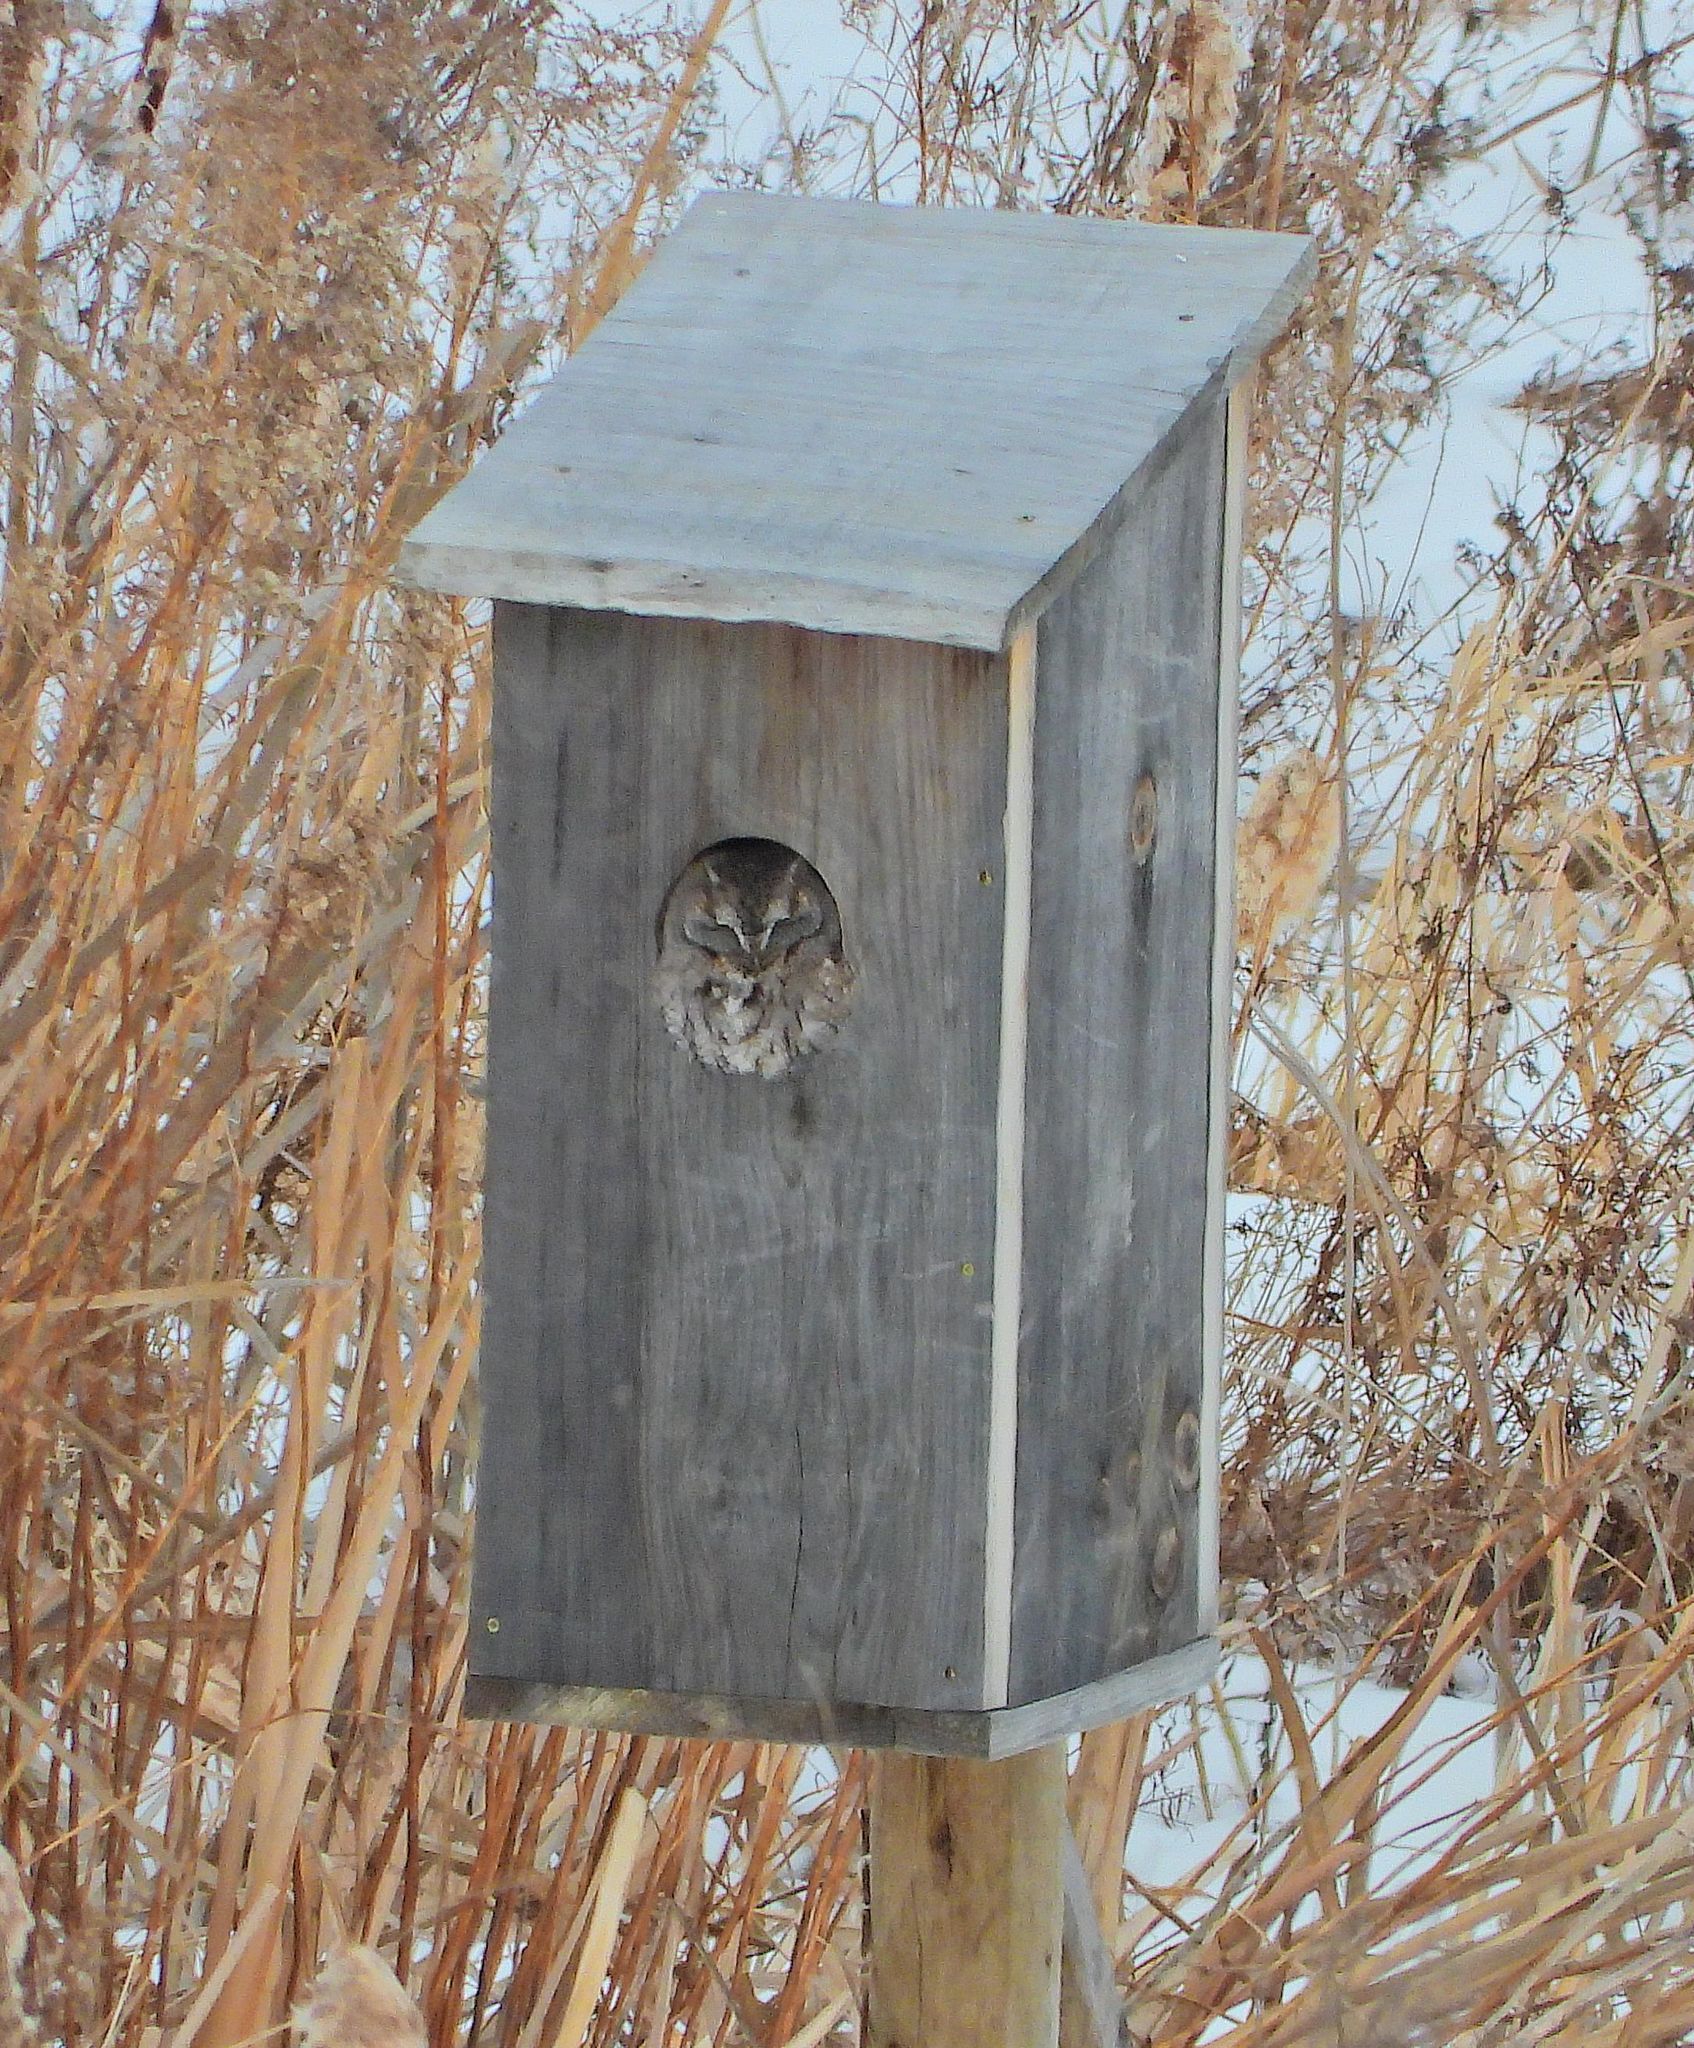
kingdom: Animalia
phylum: Chordata
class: Aves
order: Strigiformes
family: Strigidae
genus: Megascops
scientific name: Megascops asio
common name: Eastern screech-owl
